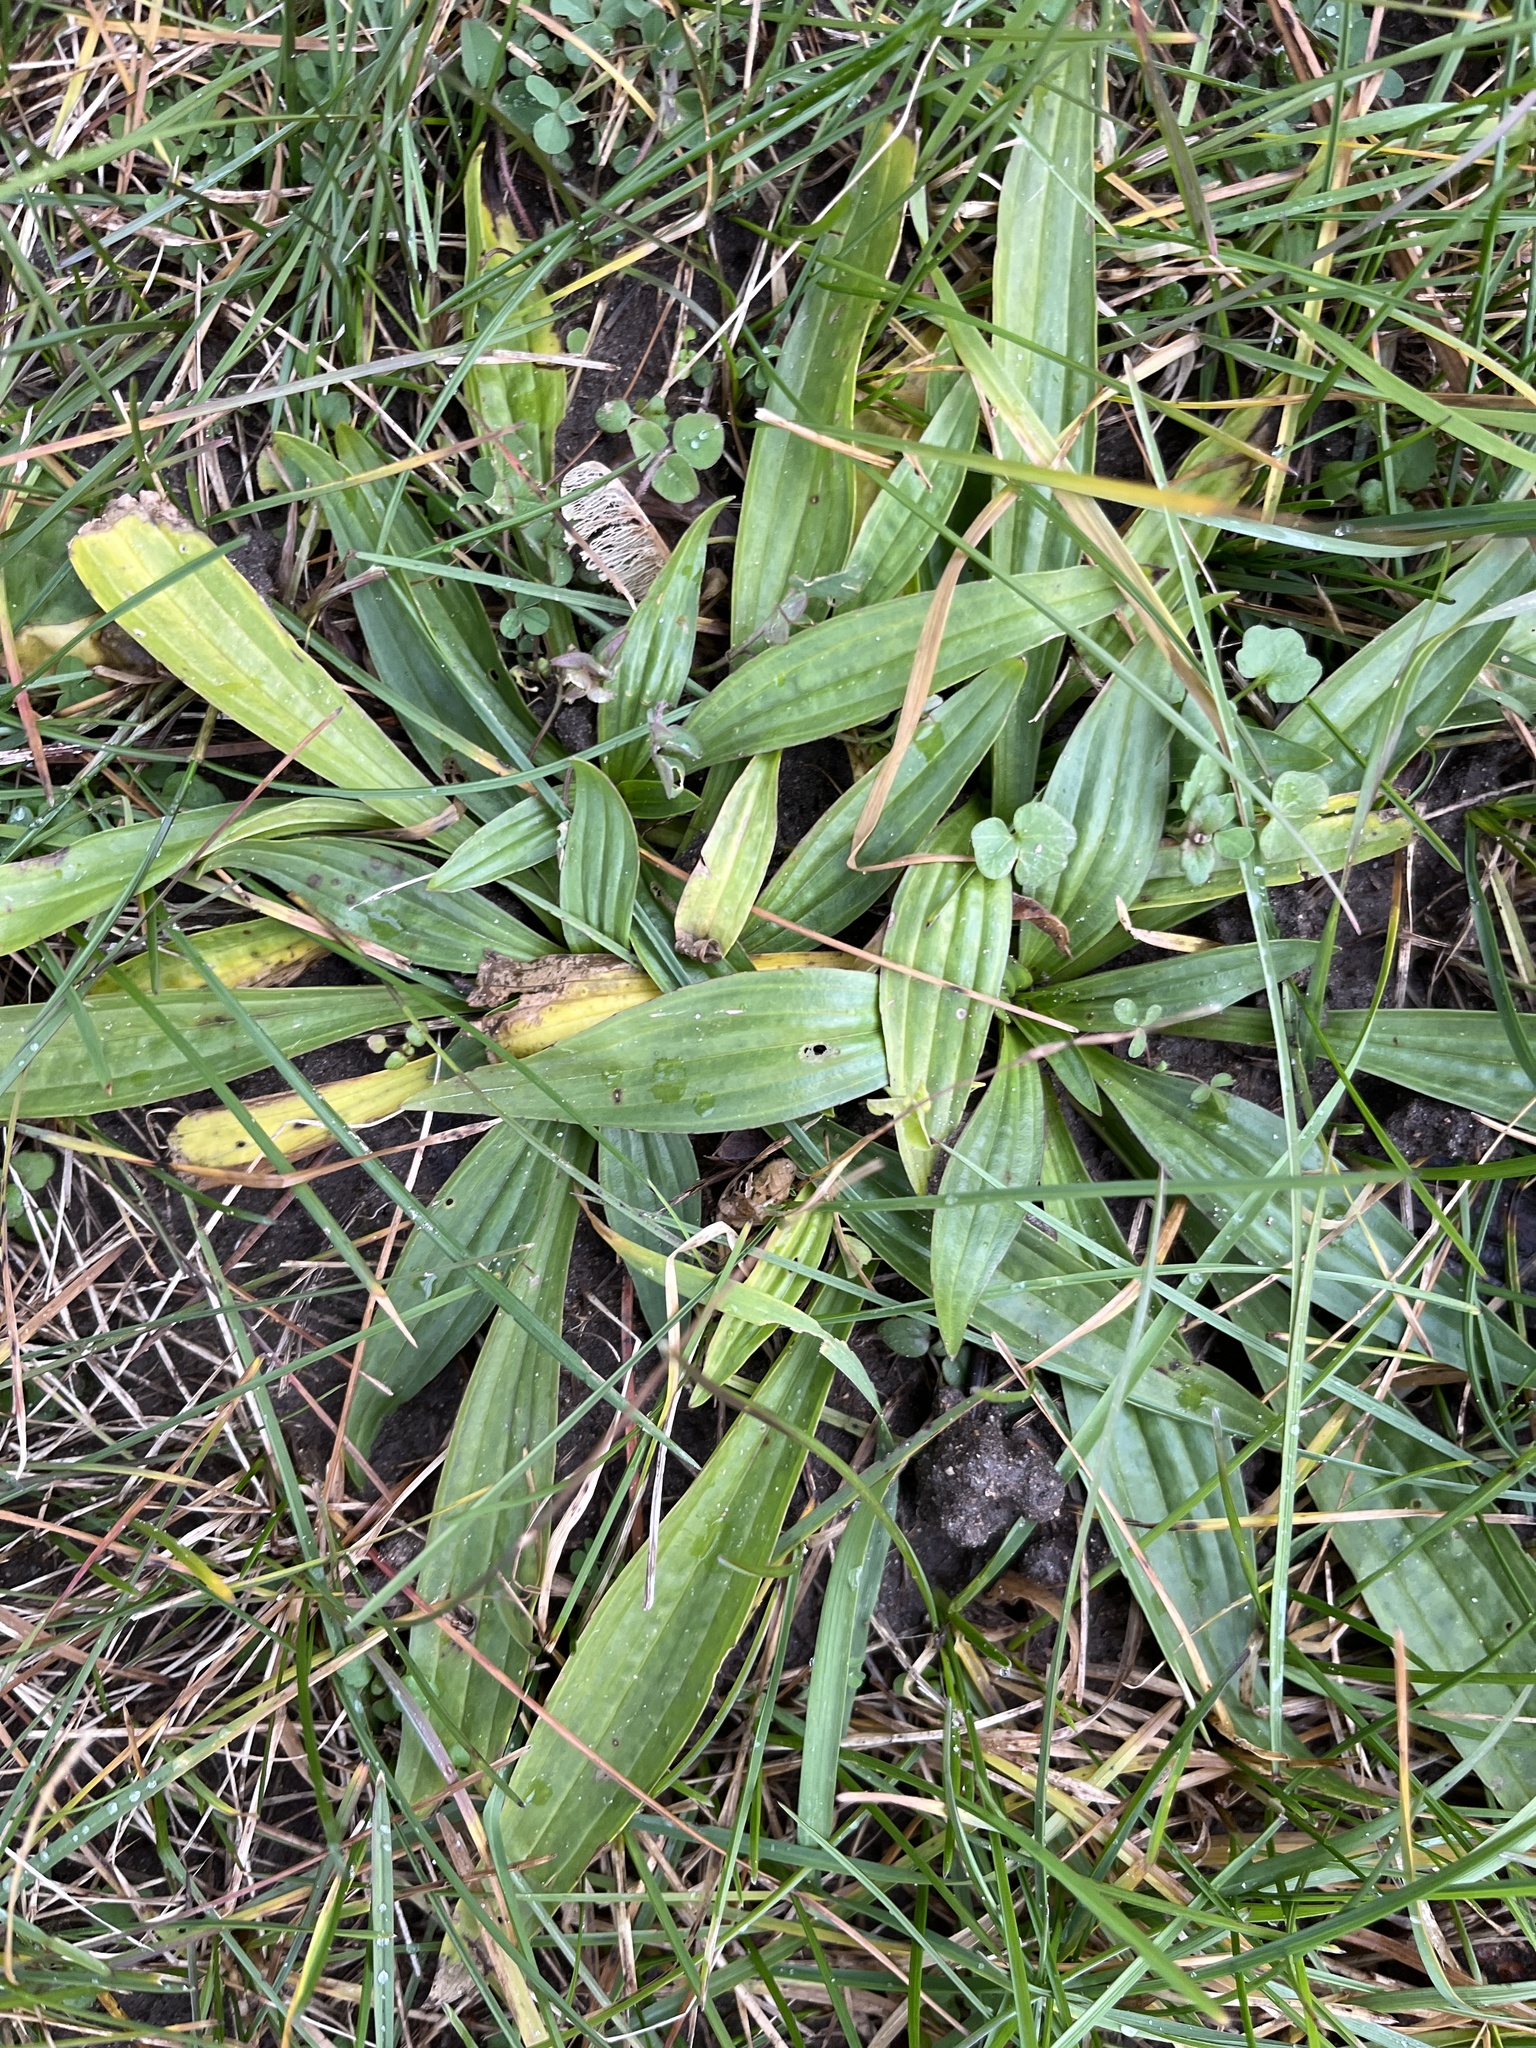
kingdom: Plantae
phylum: Tracheophyta
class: Magnoliopsida
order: Lamiales
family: Plantaginaceae
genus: Plantago
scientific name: Plantago lanceolata
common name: Ribwort plantain
